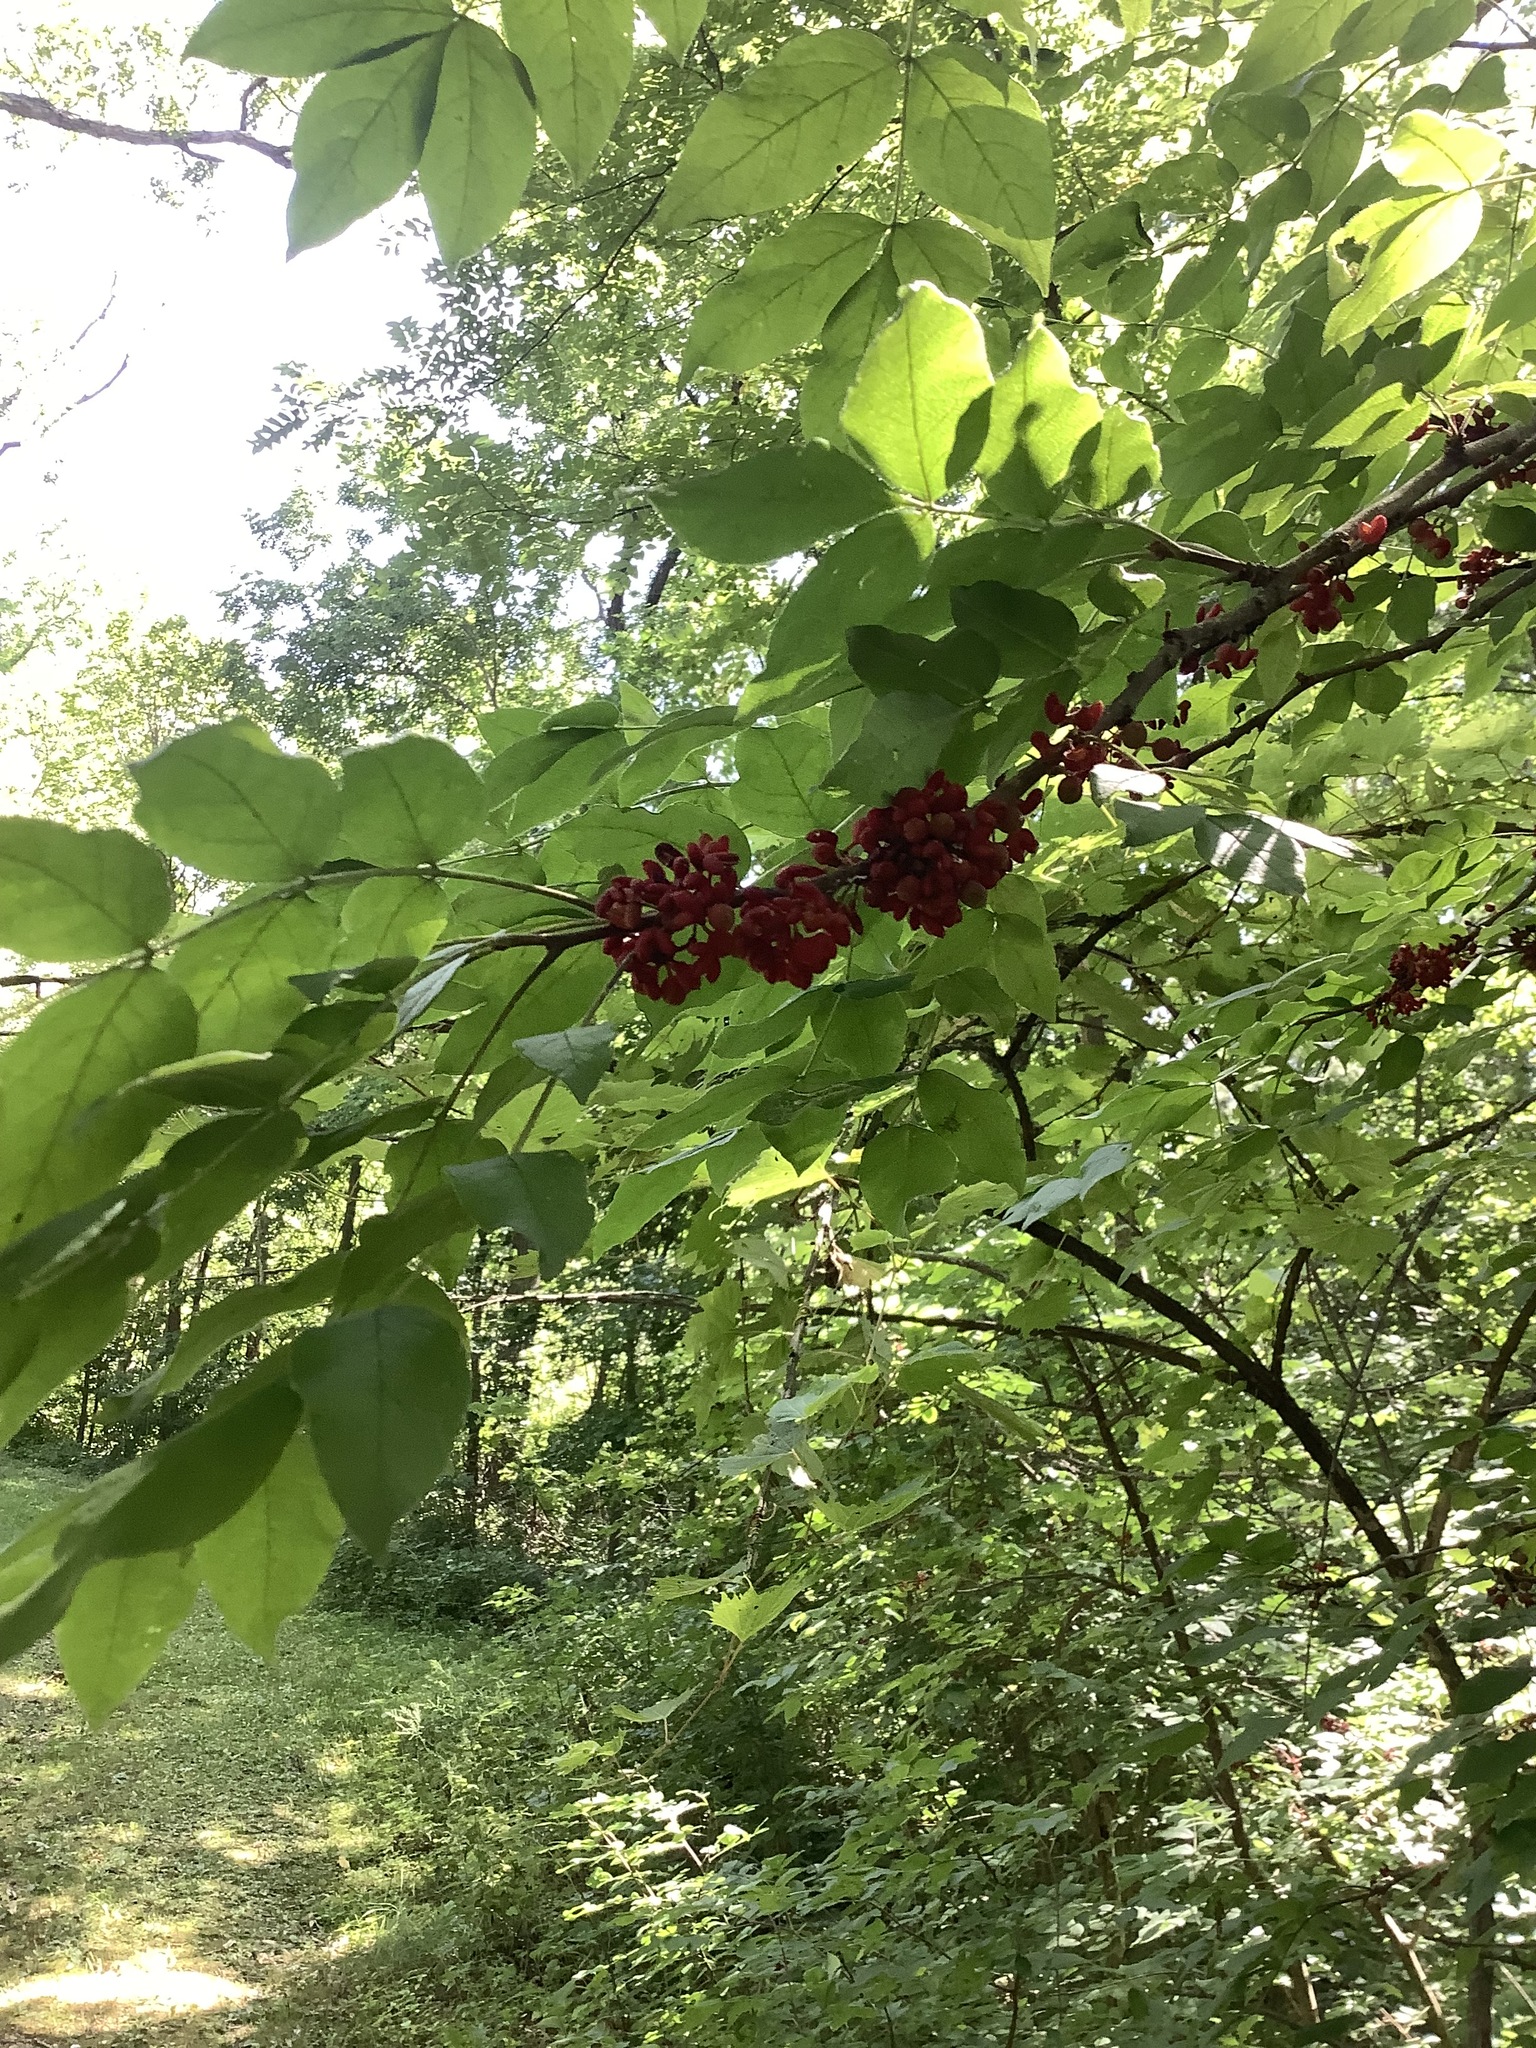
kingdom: Plantae
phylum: Tracheophyta
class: Magnoliopsida
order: Sapindales
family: Rutaceae
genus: Zanthoxylum
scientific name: Zanthoxylum americanum
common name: Northern prickly-ash
